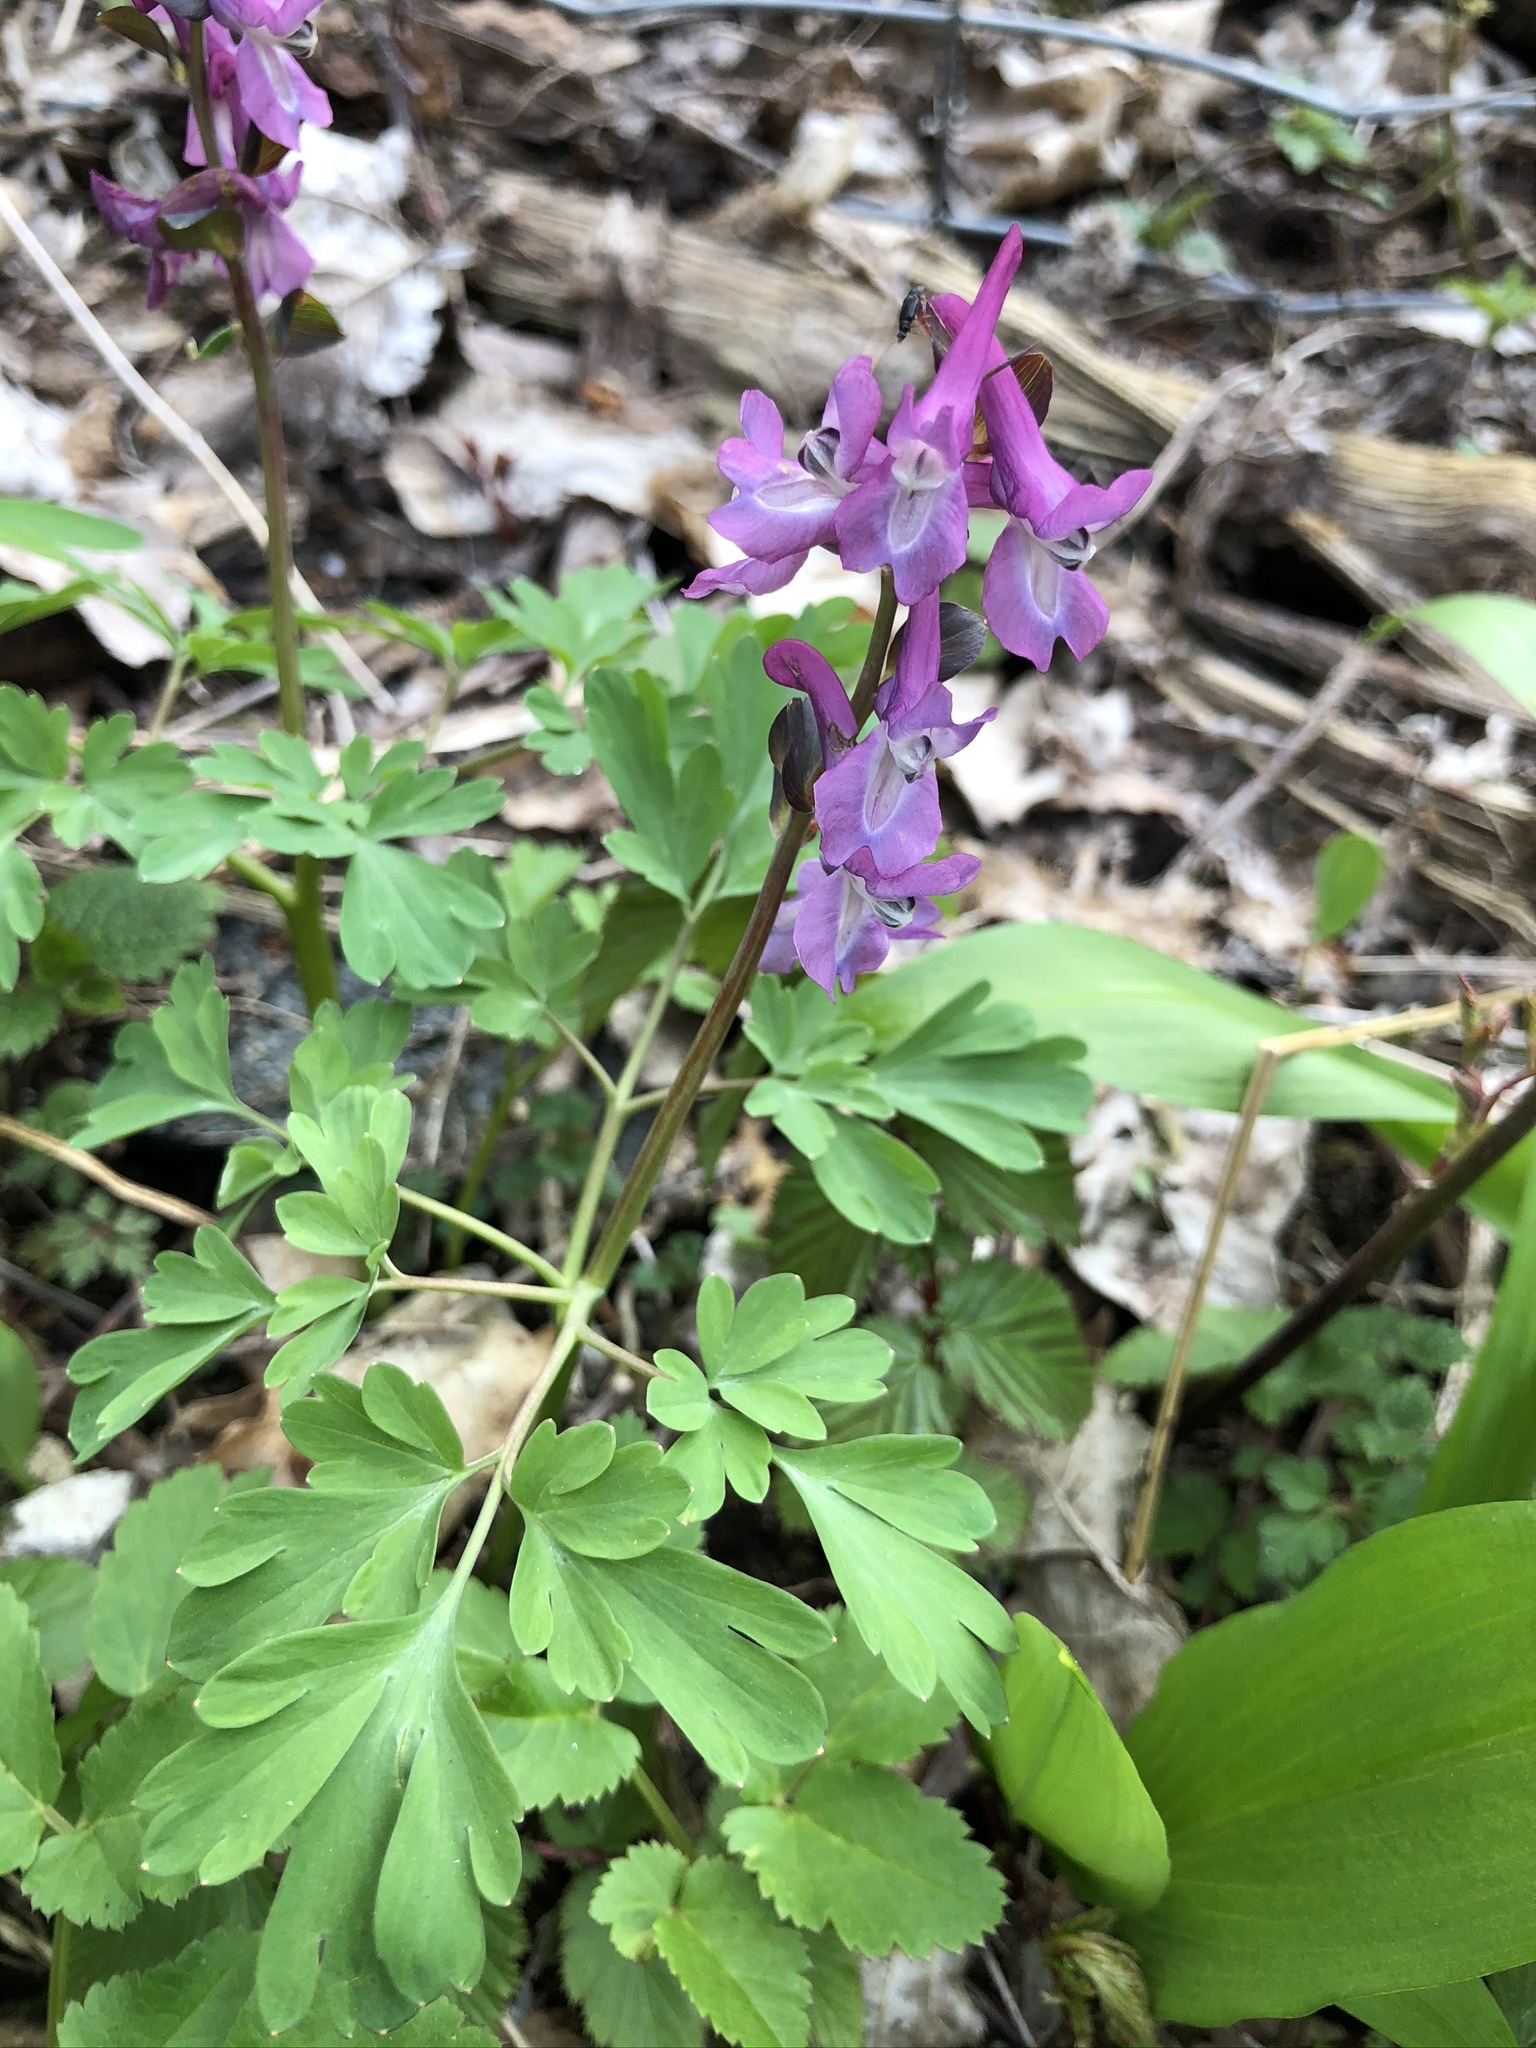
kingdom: Plantae
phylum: Tracheophyta
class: Magnoliopsida
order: Ranunculales
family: Papaveraceae
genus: Corydalis
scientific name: Corydalis cava
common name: Hollowroot
